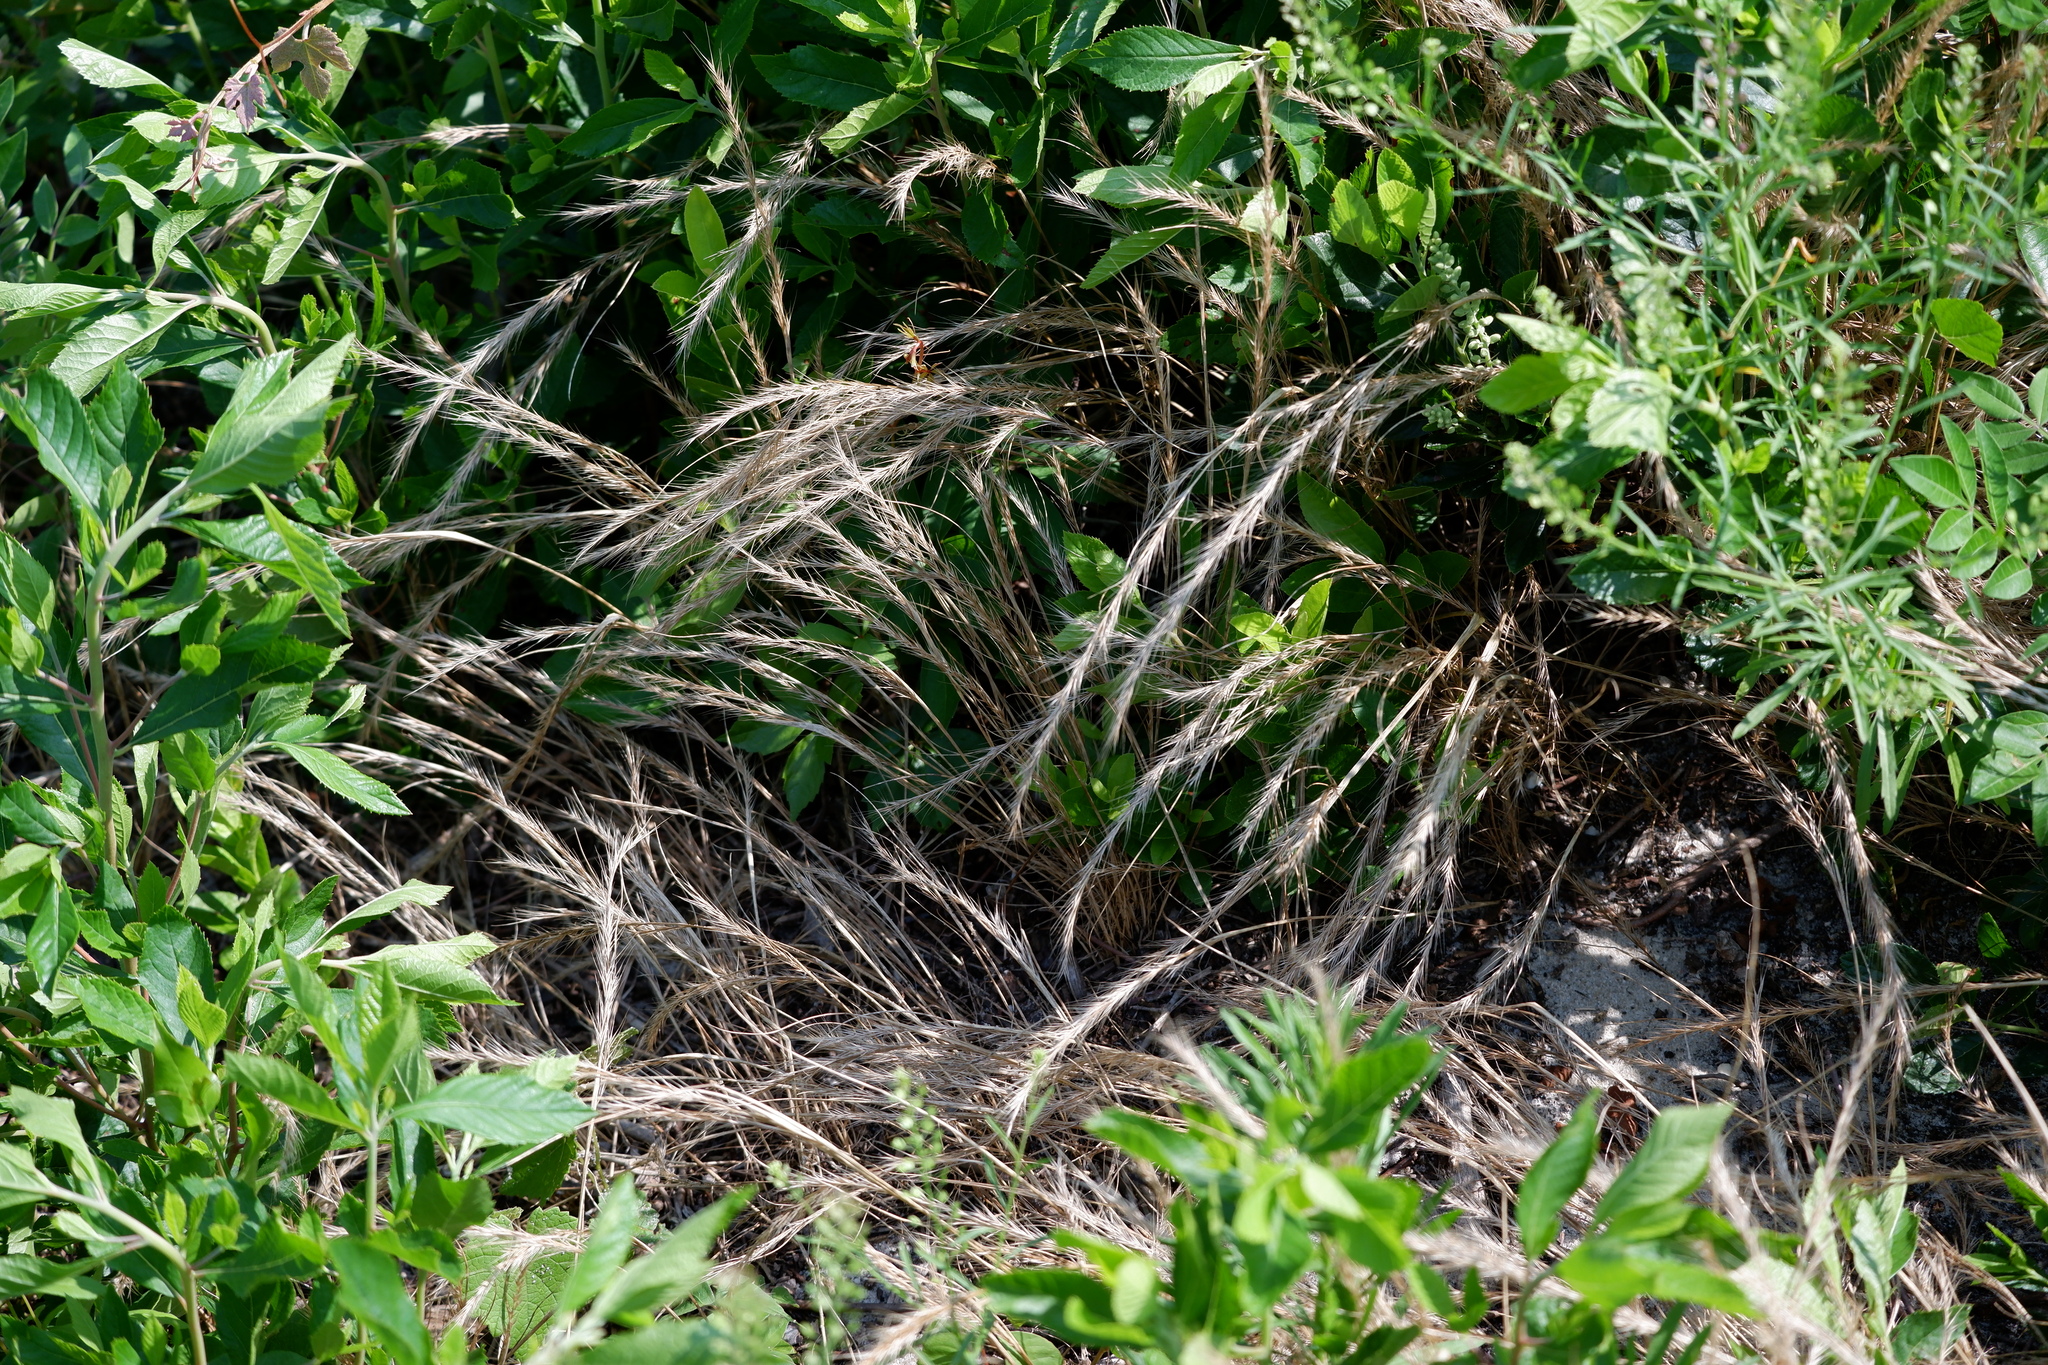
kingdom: Plantae
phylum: Tracheophyta
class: Liliopsida
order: Poales
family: Poaceae
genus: Festuca
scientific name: Festuca myuros
